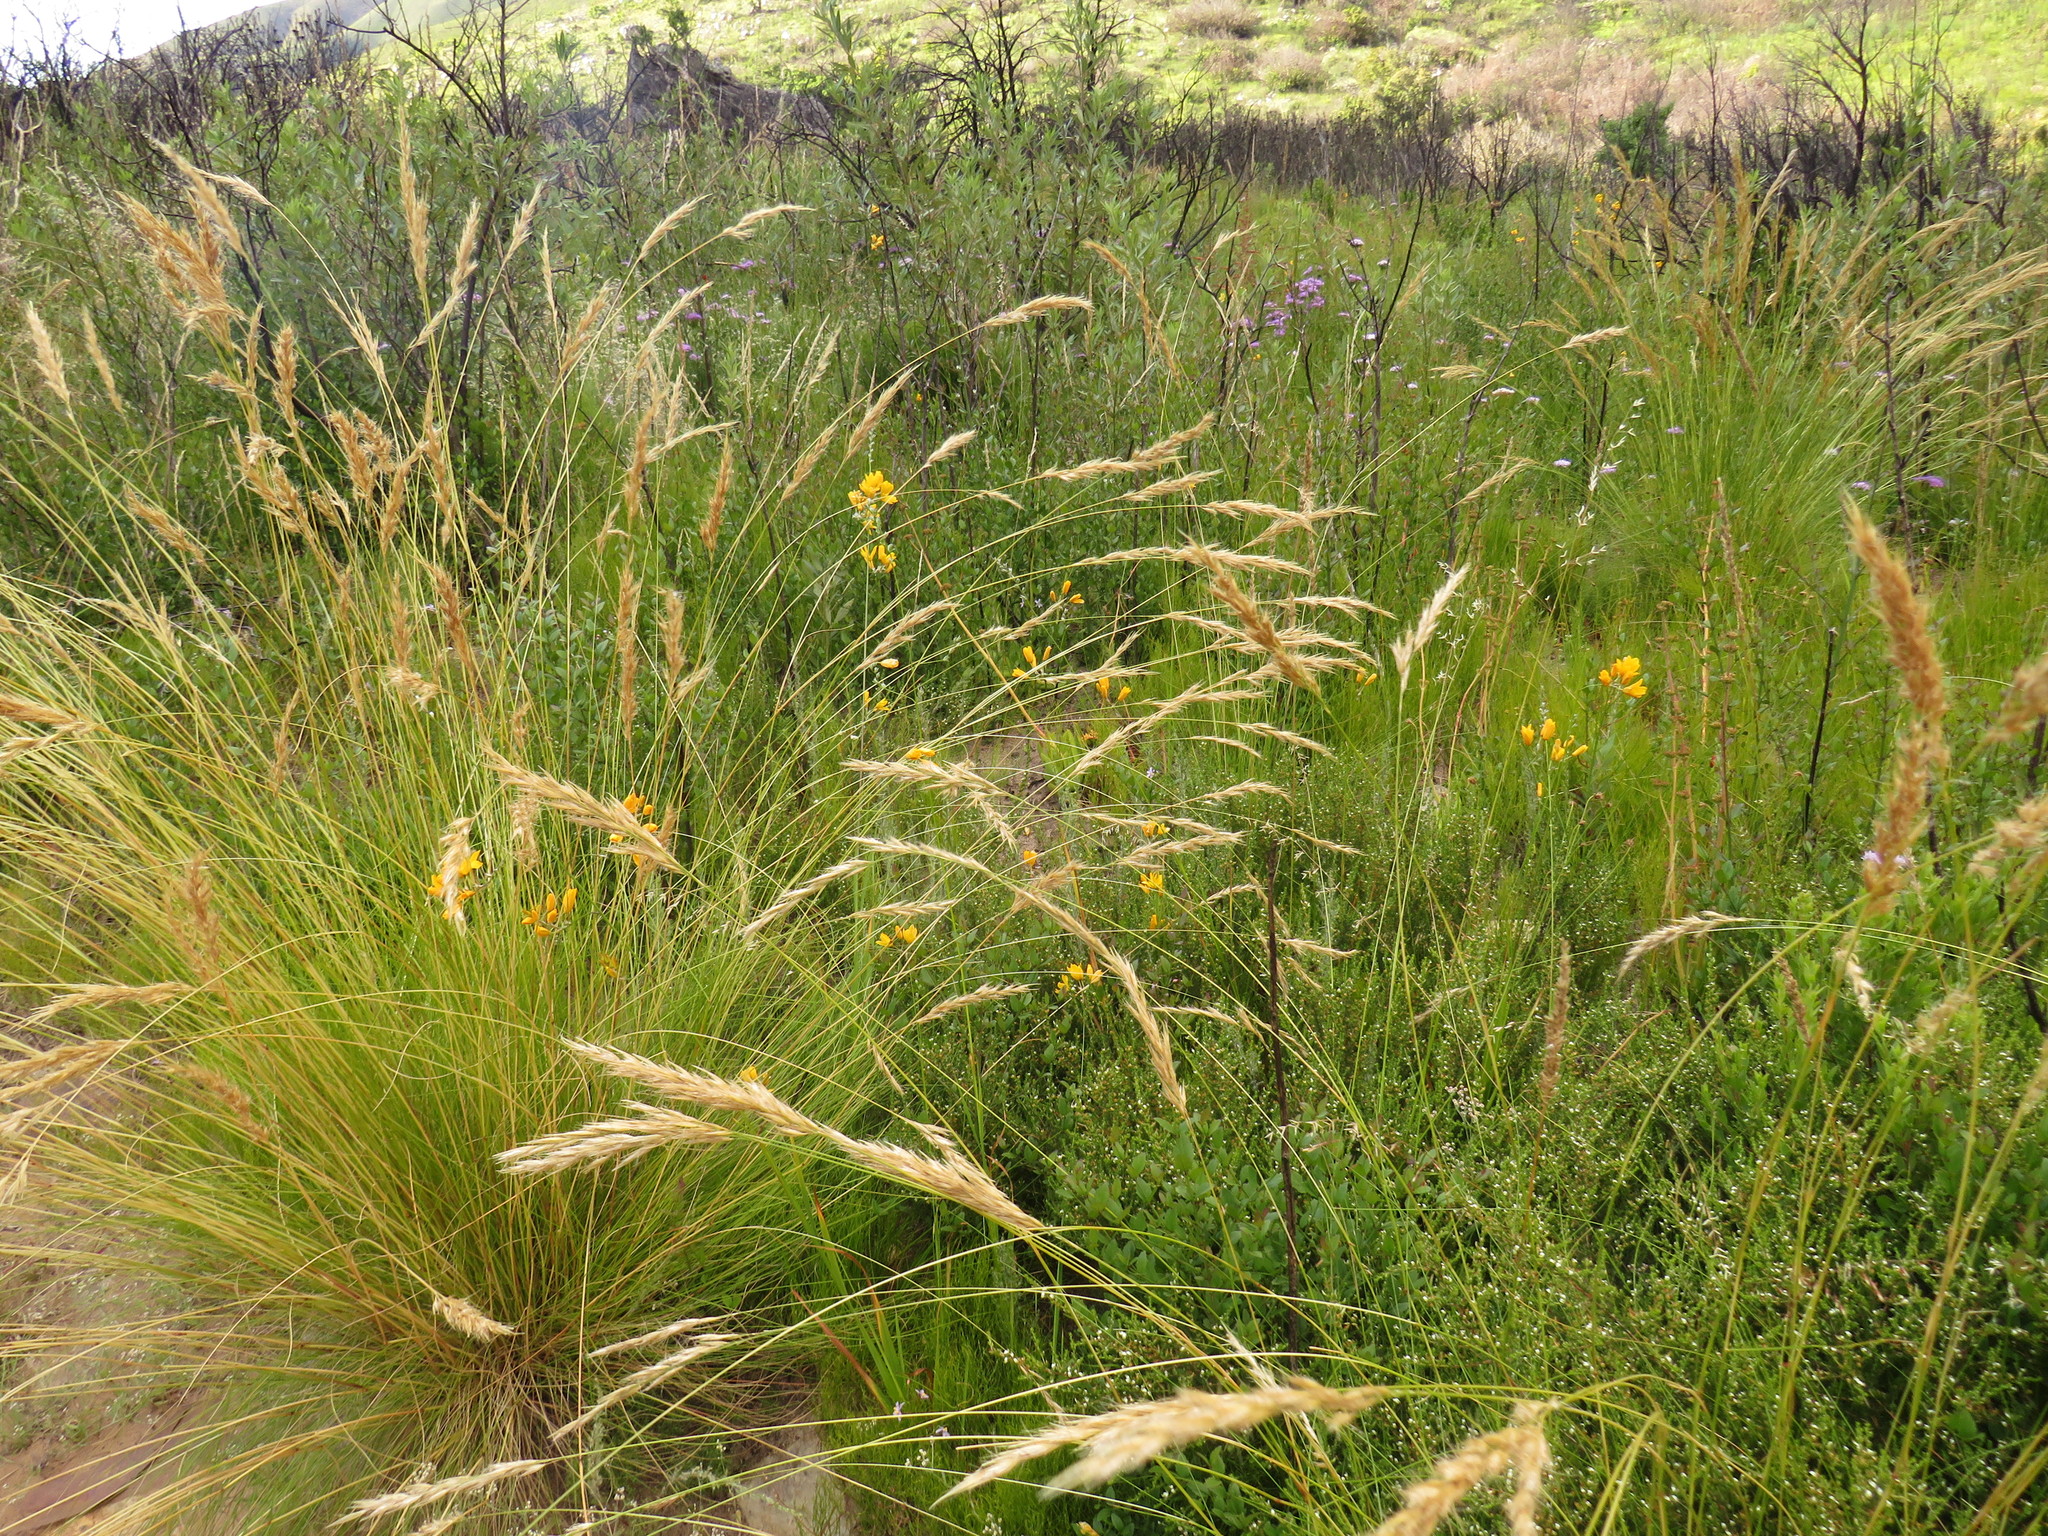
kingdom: Plantae
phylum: Tracheophyta
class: Liliopsida
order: Asparagales
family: Iridaceae
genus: Ixia
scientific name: Ixia odorata
